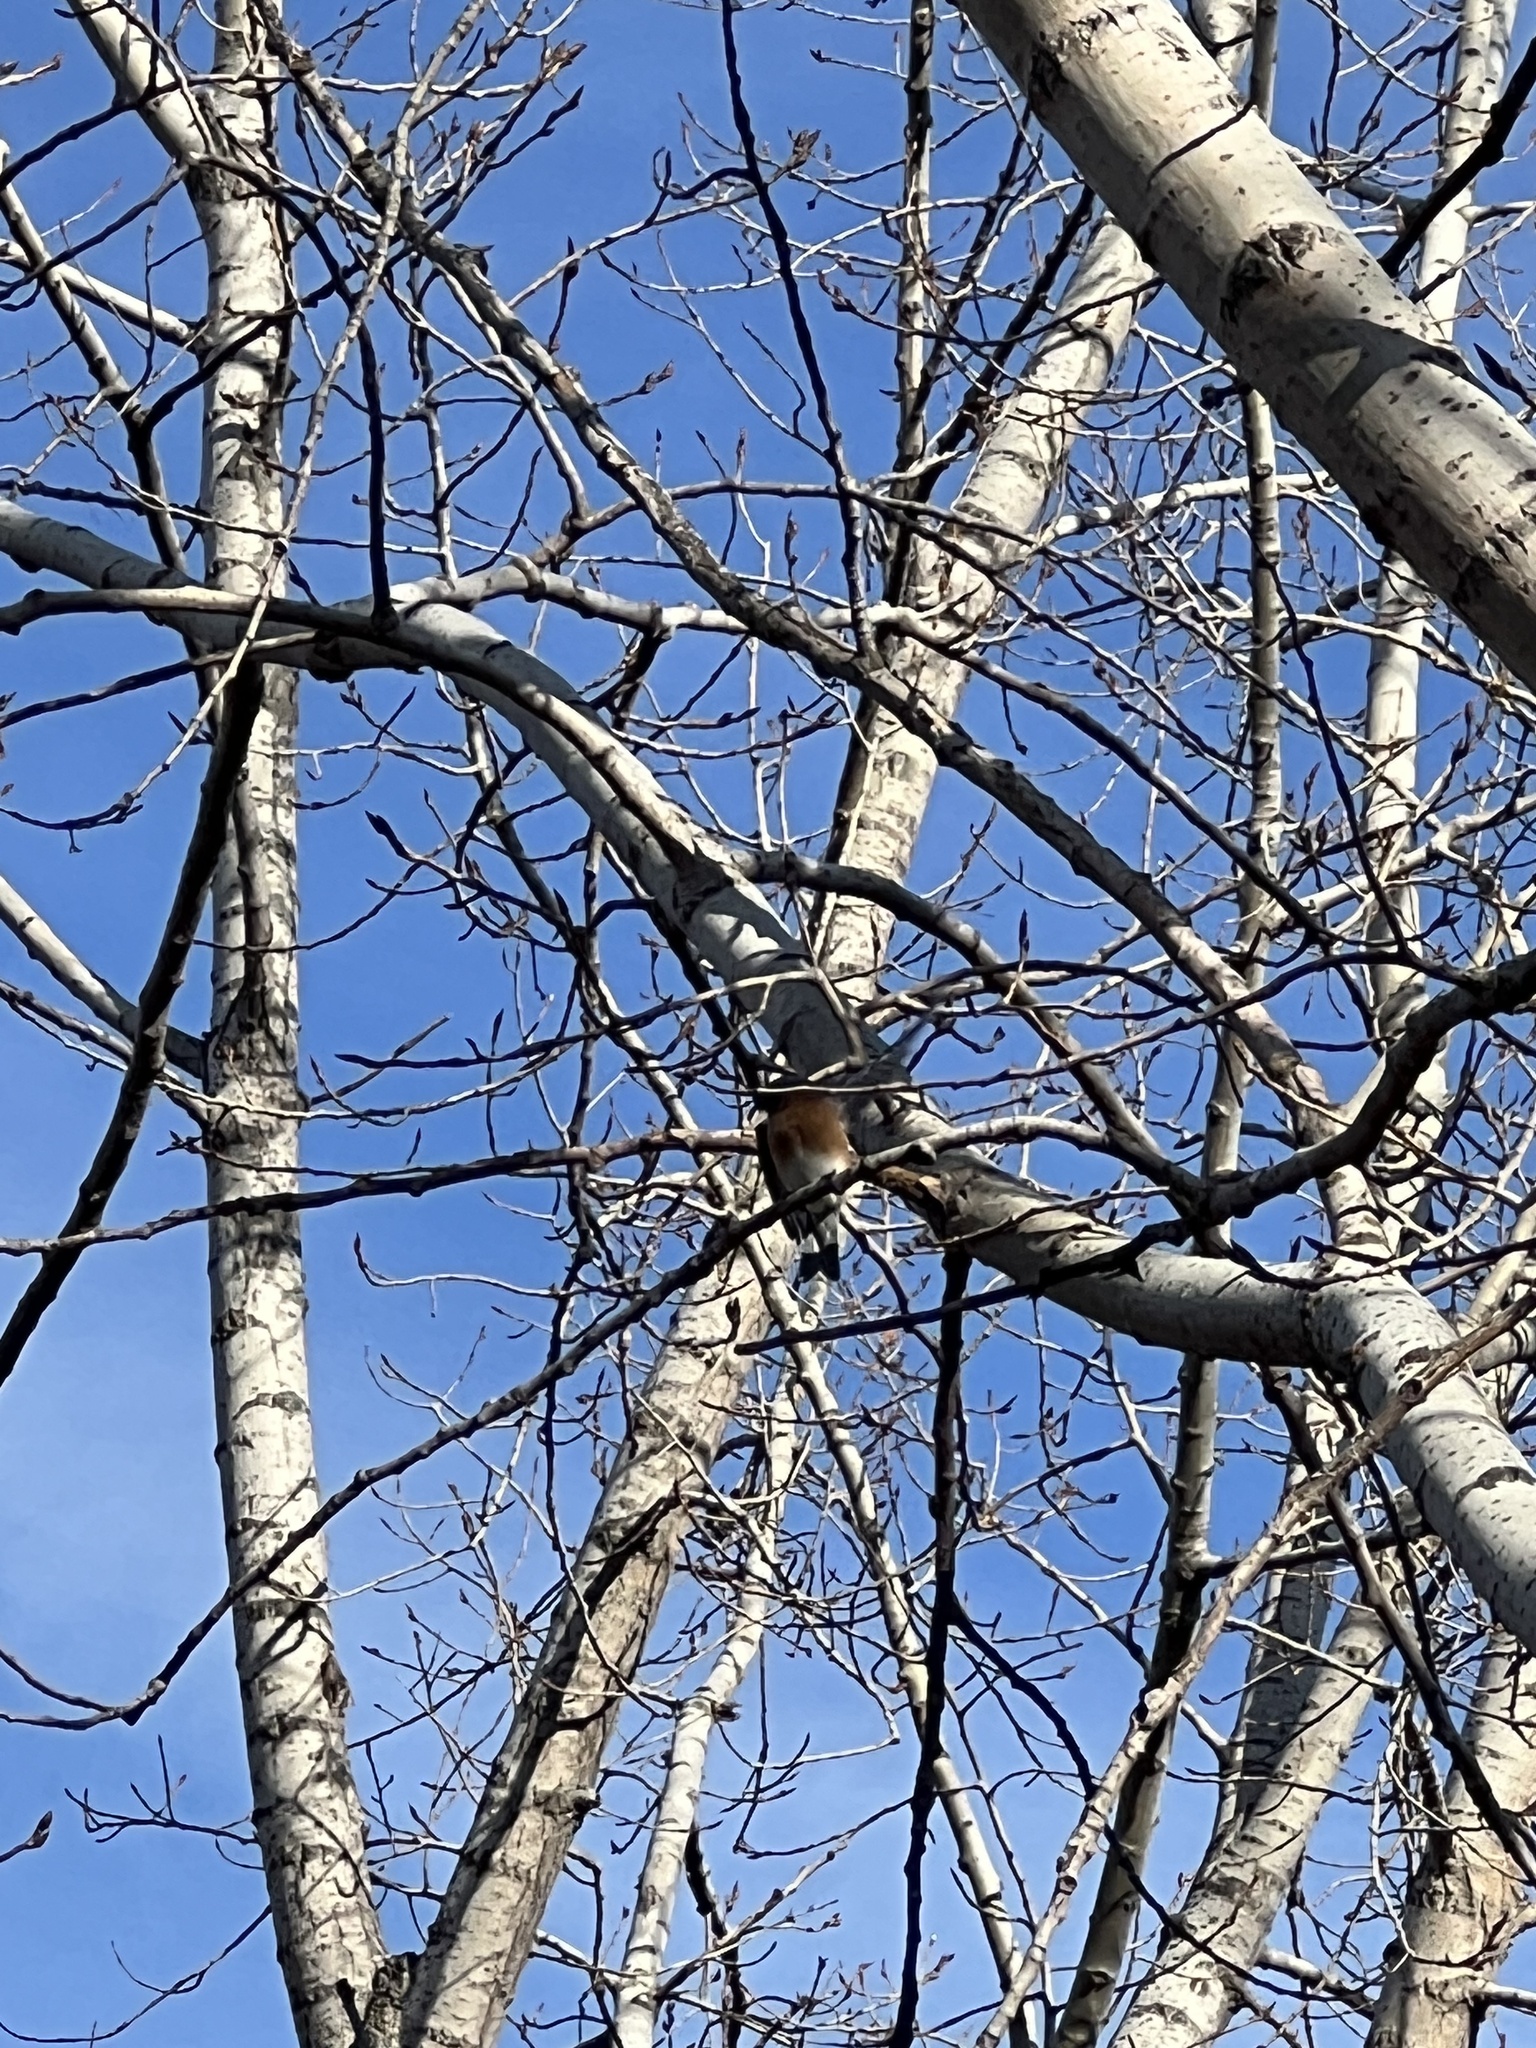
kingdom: Animalia
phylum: Chordata
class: Aves
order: Passeriformes
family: Turdidae
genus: Sialia
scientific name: Sialia sialis
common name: Eastern bluebird
